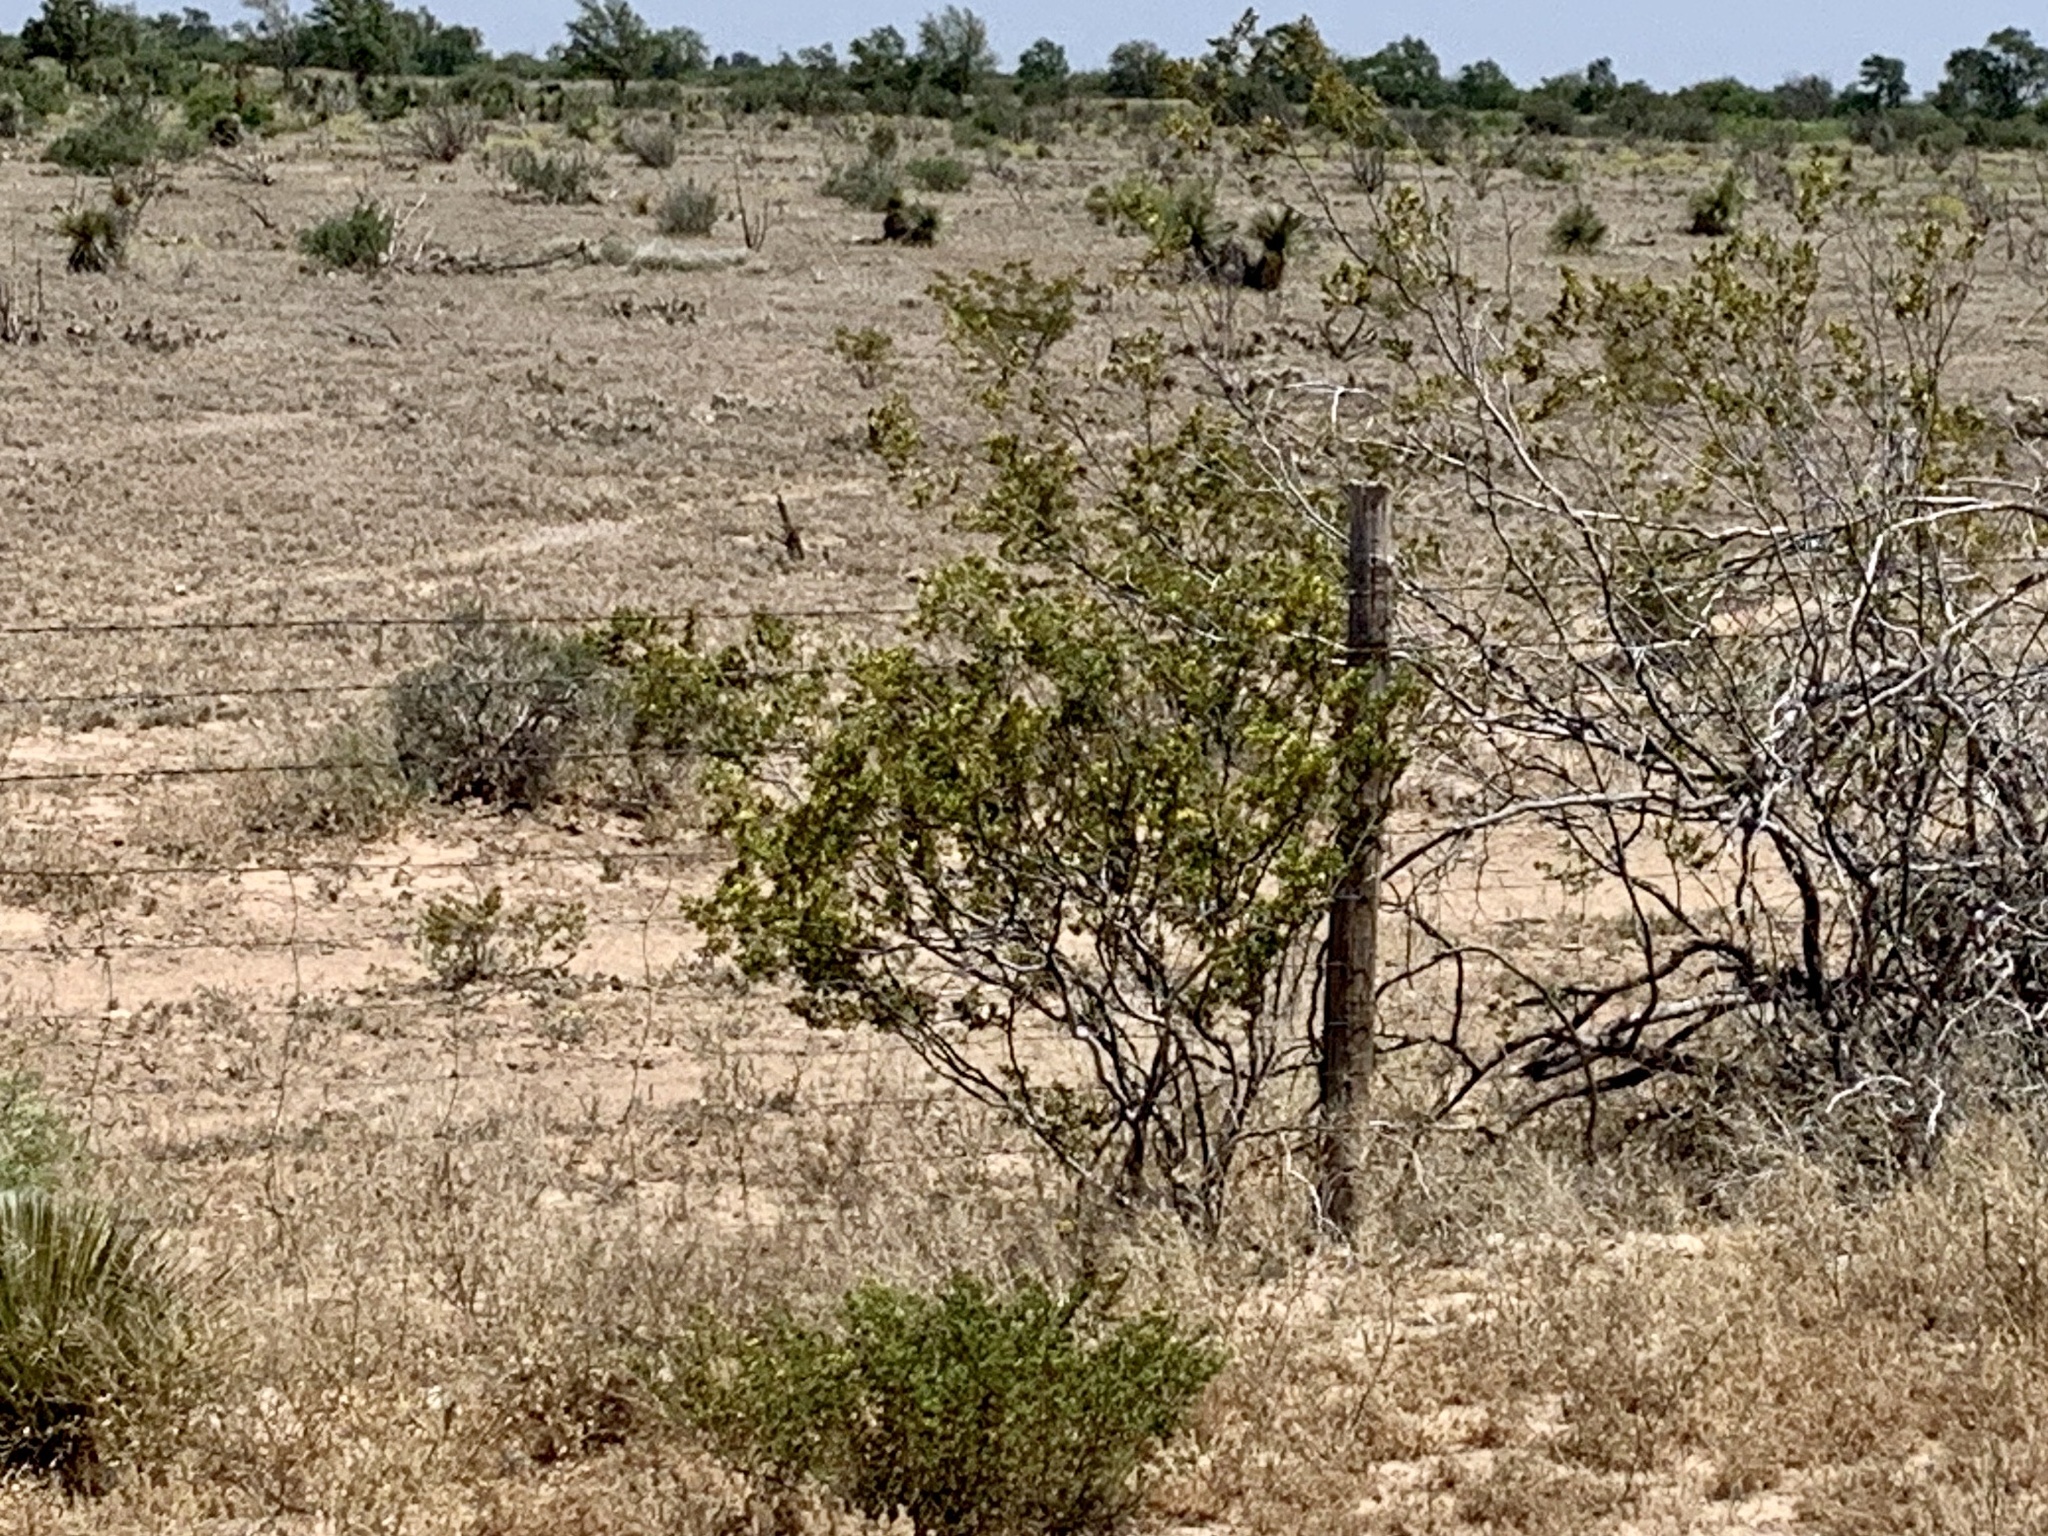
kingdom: Plantae
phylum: Tracheophyta
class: Magnoliopsida
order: Zygophyllales
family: Zygophyllaceae
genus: Larrea
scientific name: Larrea tridentata
